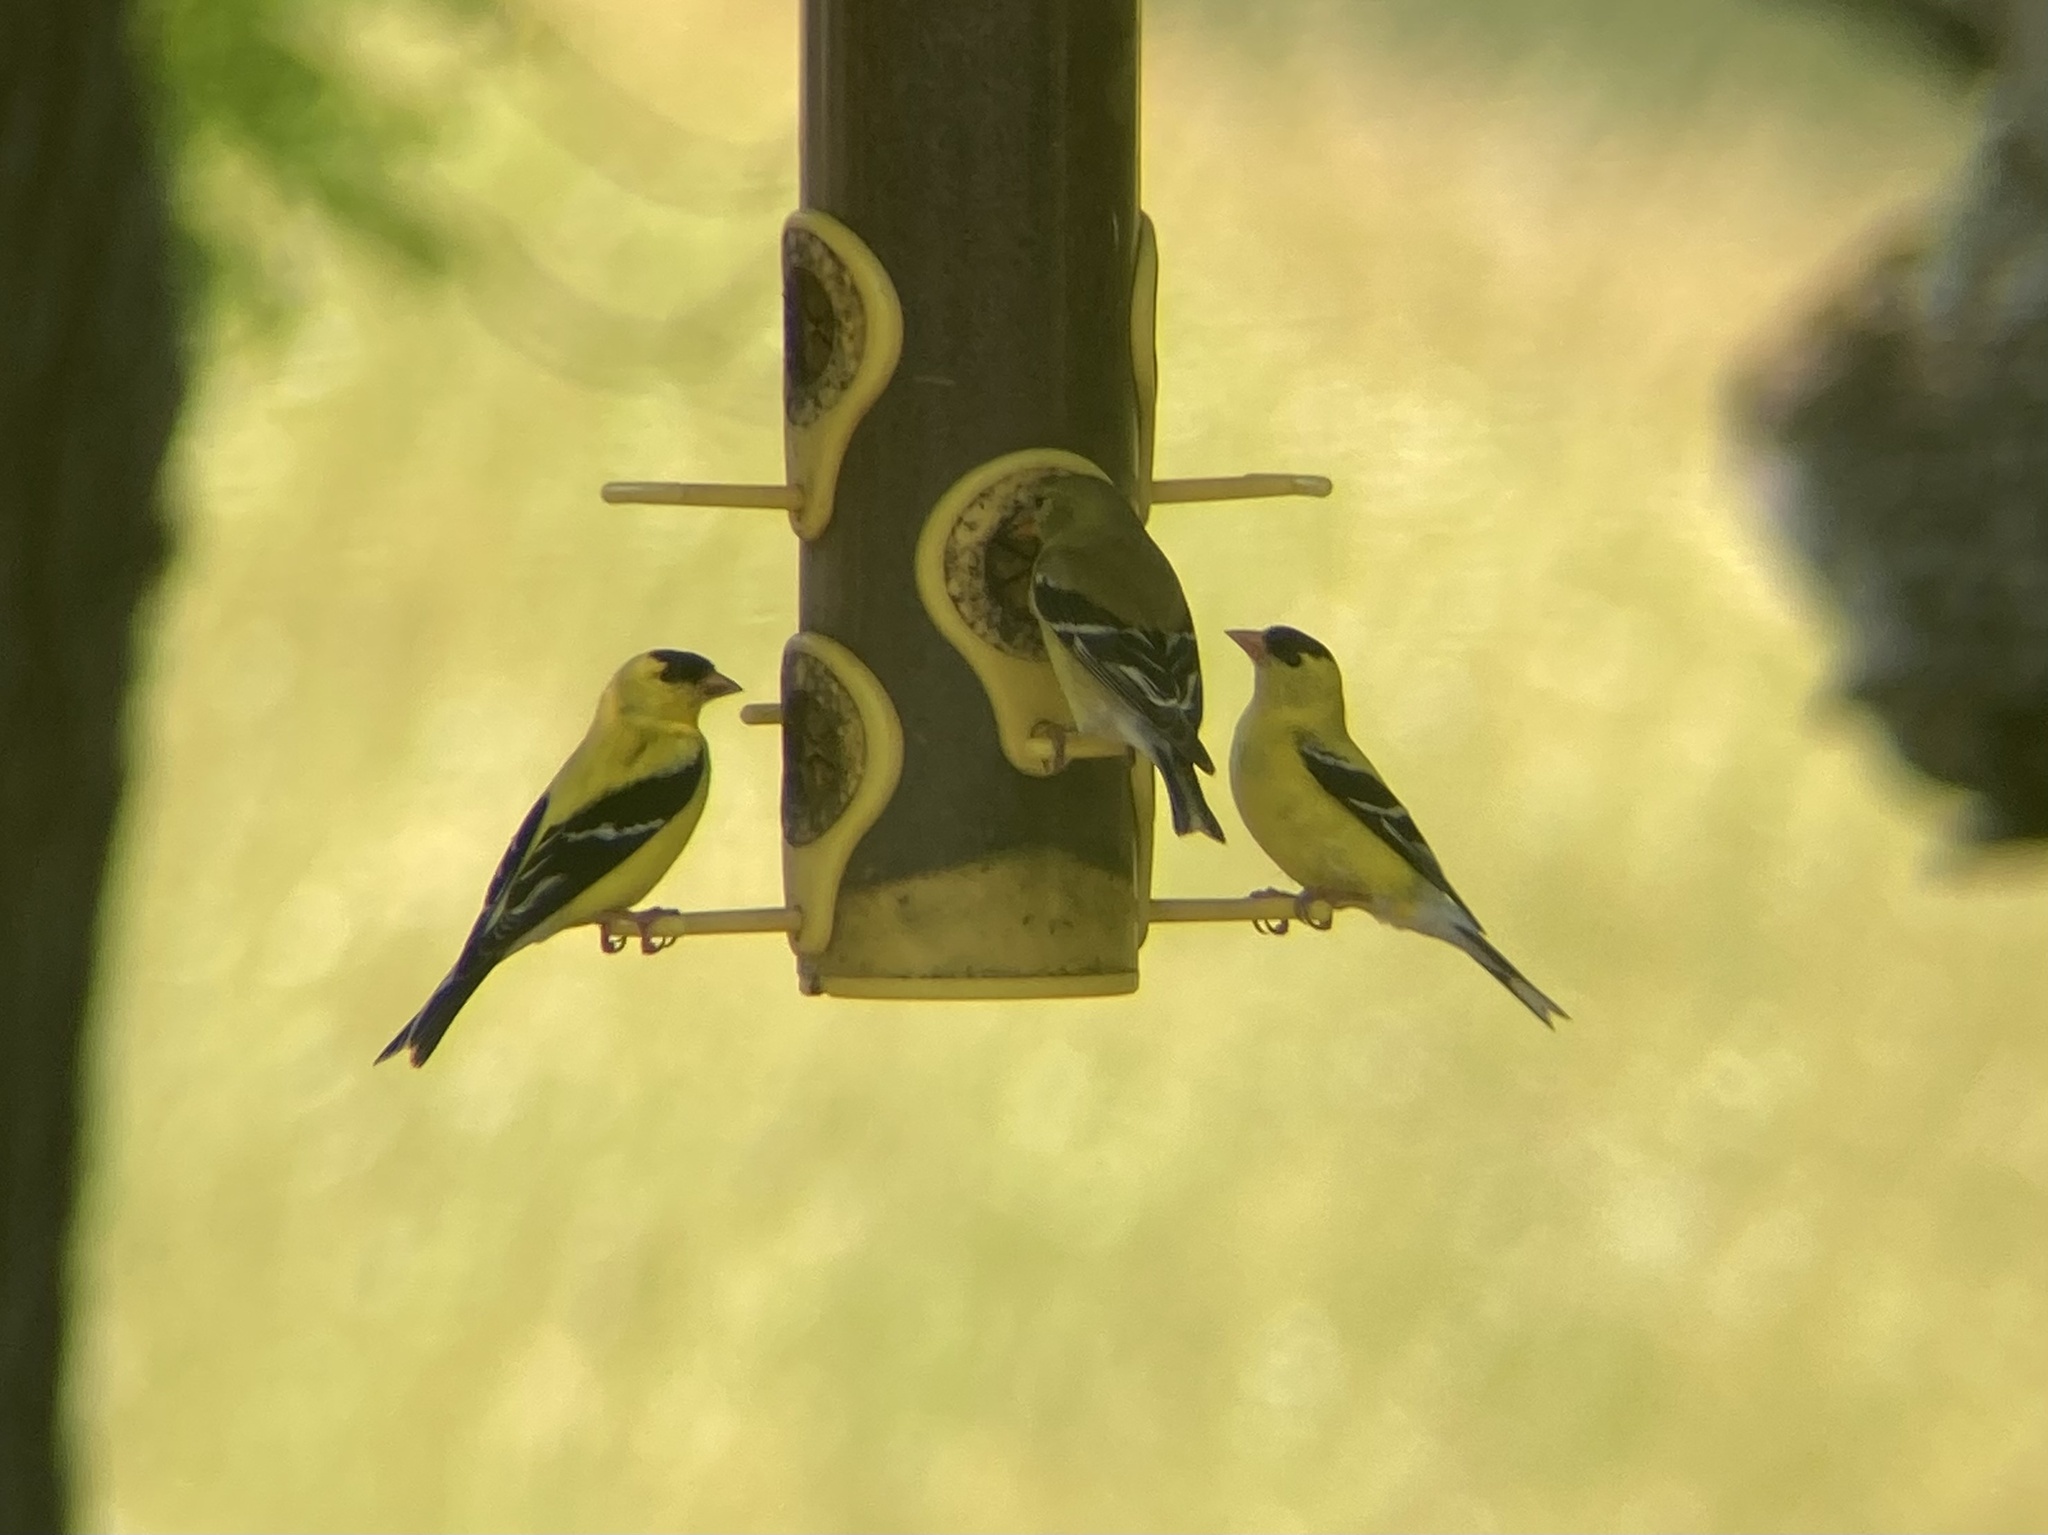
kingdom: Animalia
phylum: Chordata
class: Aves
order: Passeriformes
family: Fringillidae
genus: Spinus
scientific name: Spinus tristis
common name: American goldfinch
